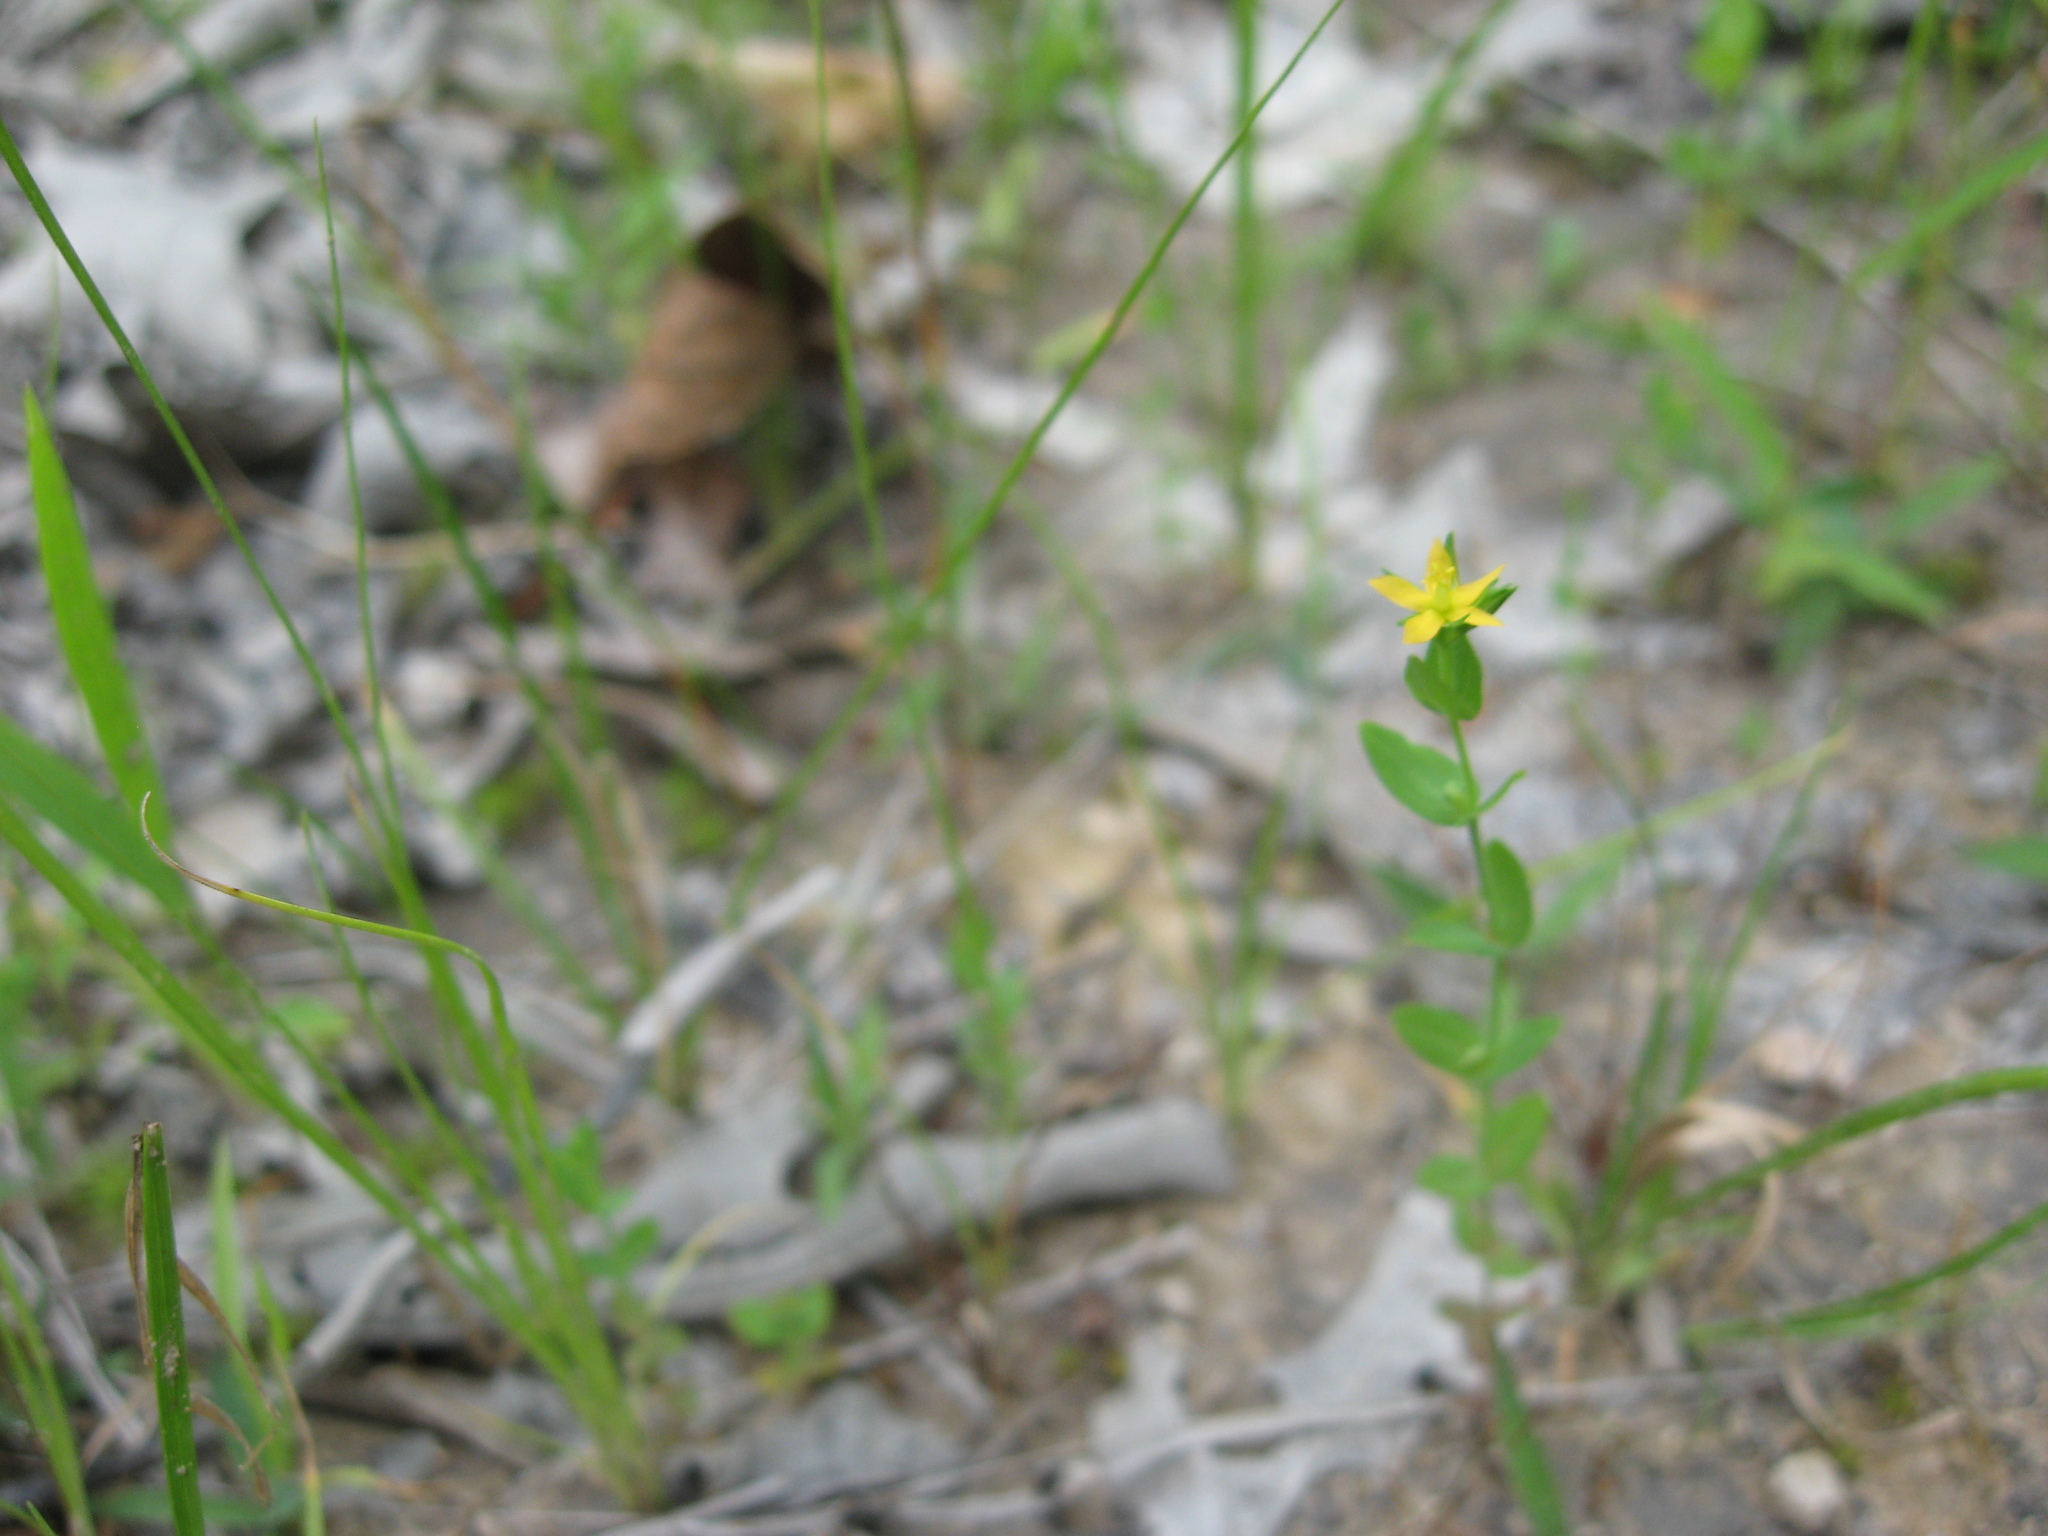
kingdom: Plantae
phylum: Tracheophyta
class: Magnoliopsida
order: Malpighiales
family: Hypericaceae
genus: Hypericum
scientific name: Hypericum canadense
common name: Irish st. john's-wort
